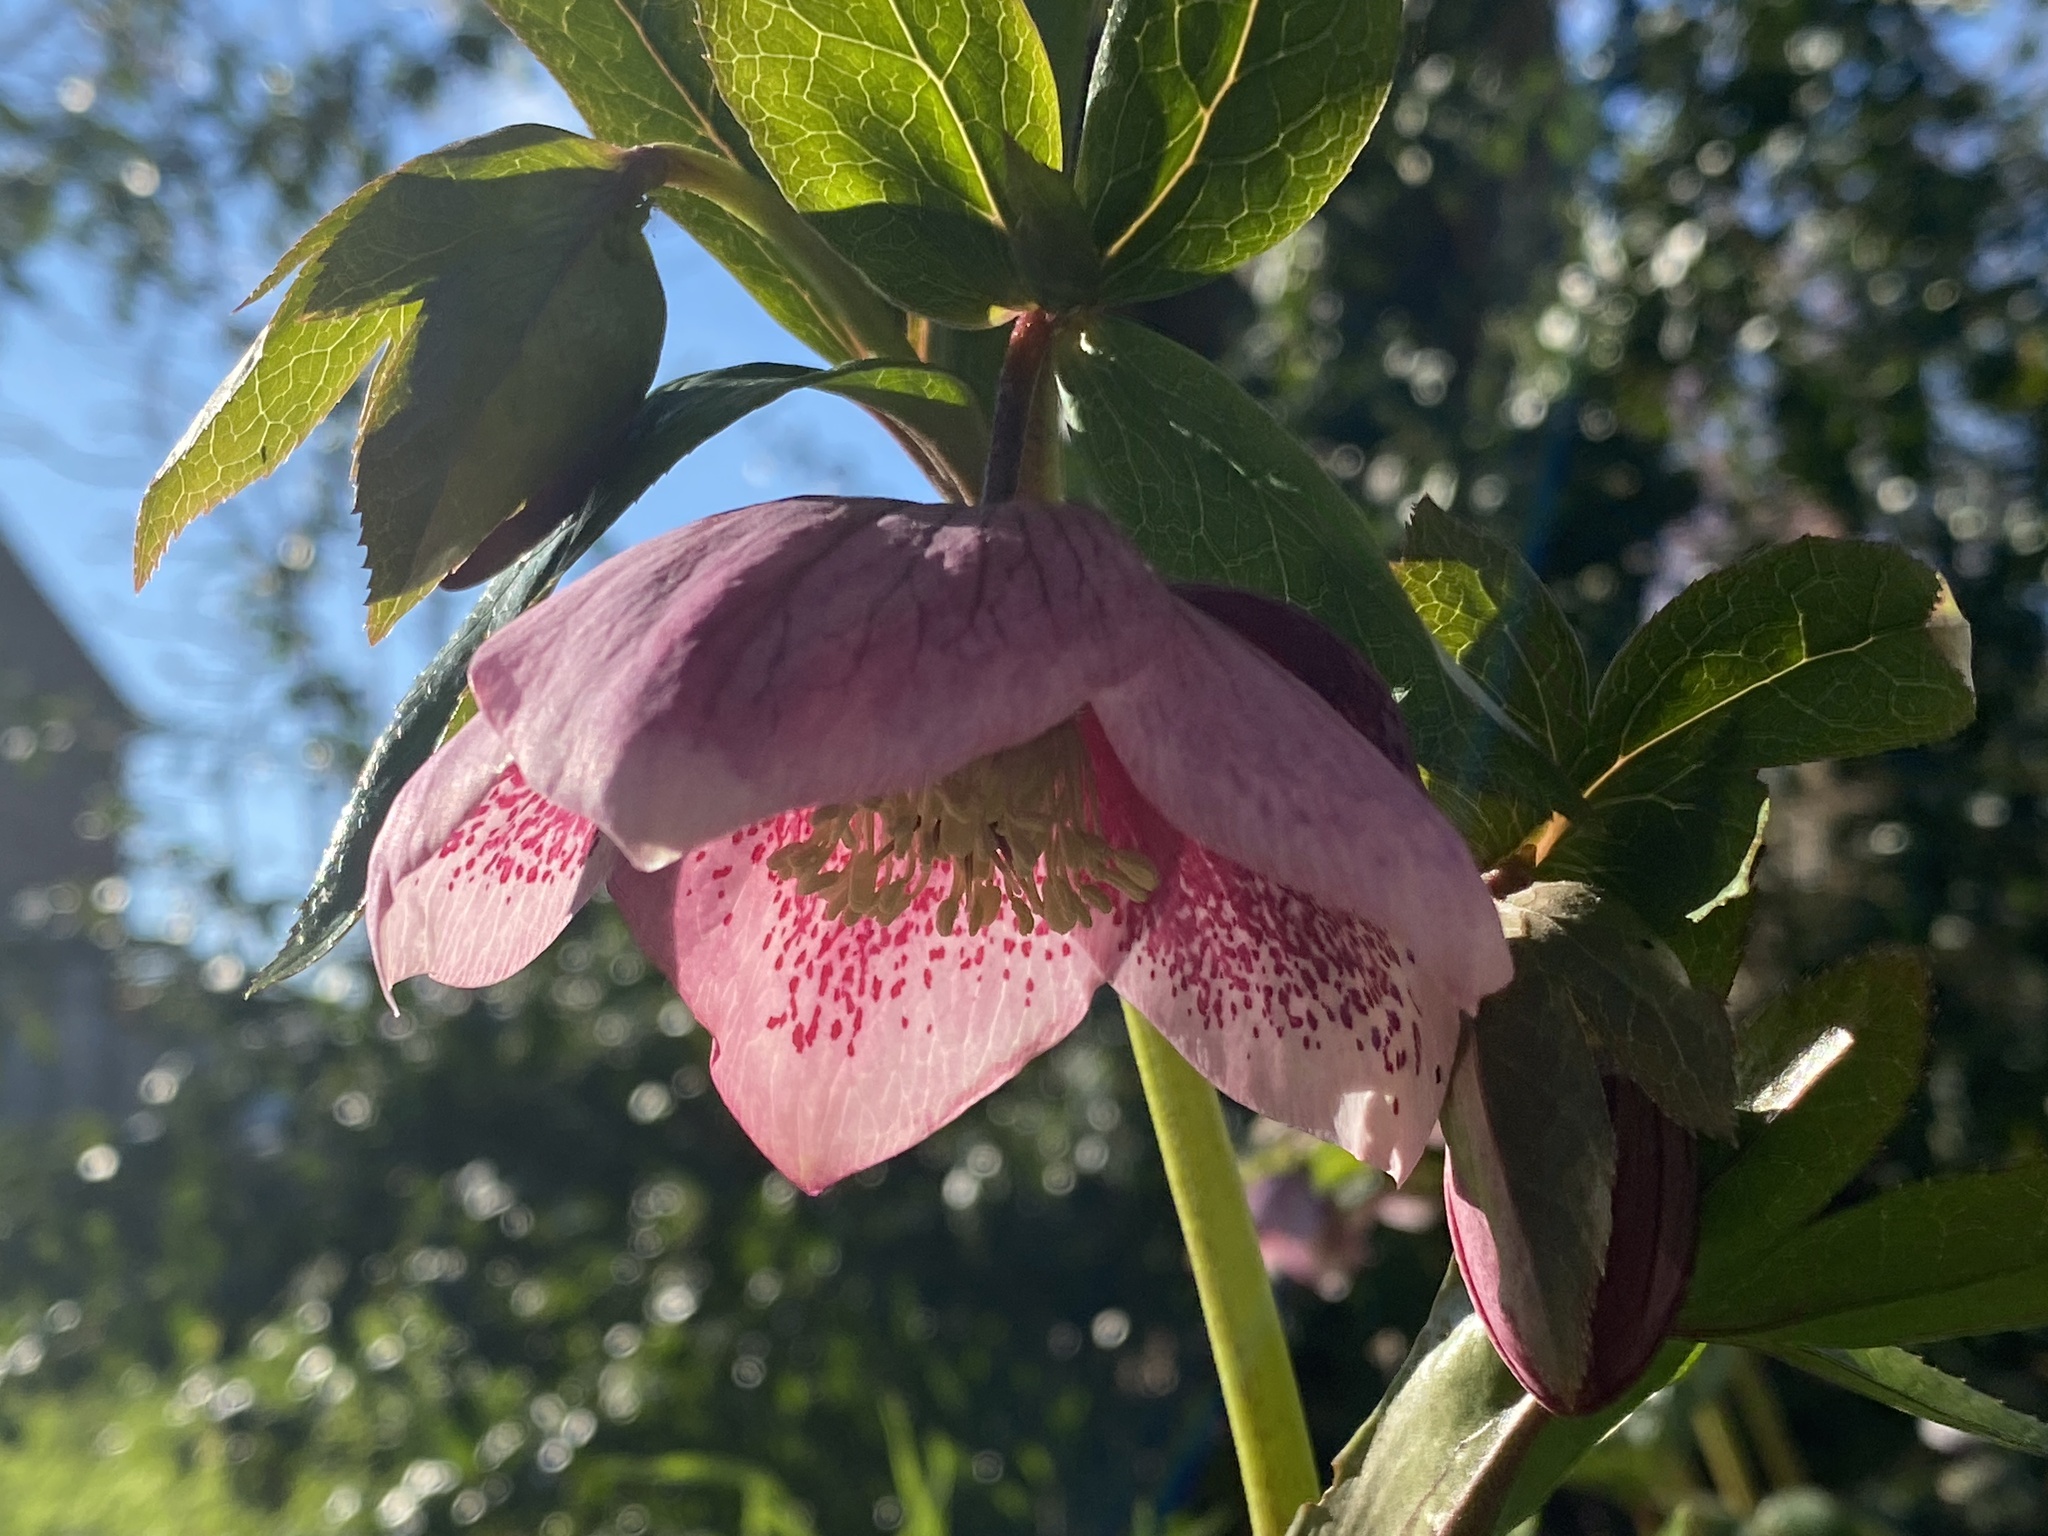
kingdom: Plantae
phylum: Tracheophyta
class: Magnoliopsida
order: Ranunculales
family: Ranunculaceae
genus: Helleborus
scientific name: Helleborus orientalis
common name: Lenten-rose
